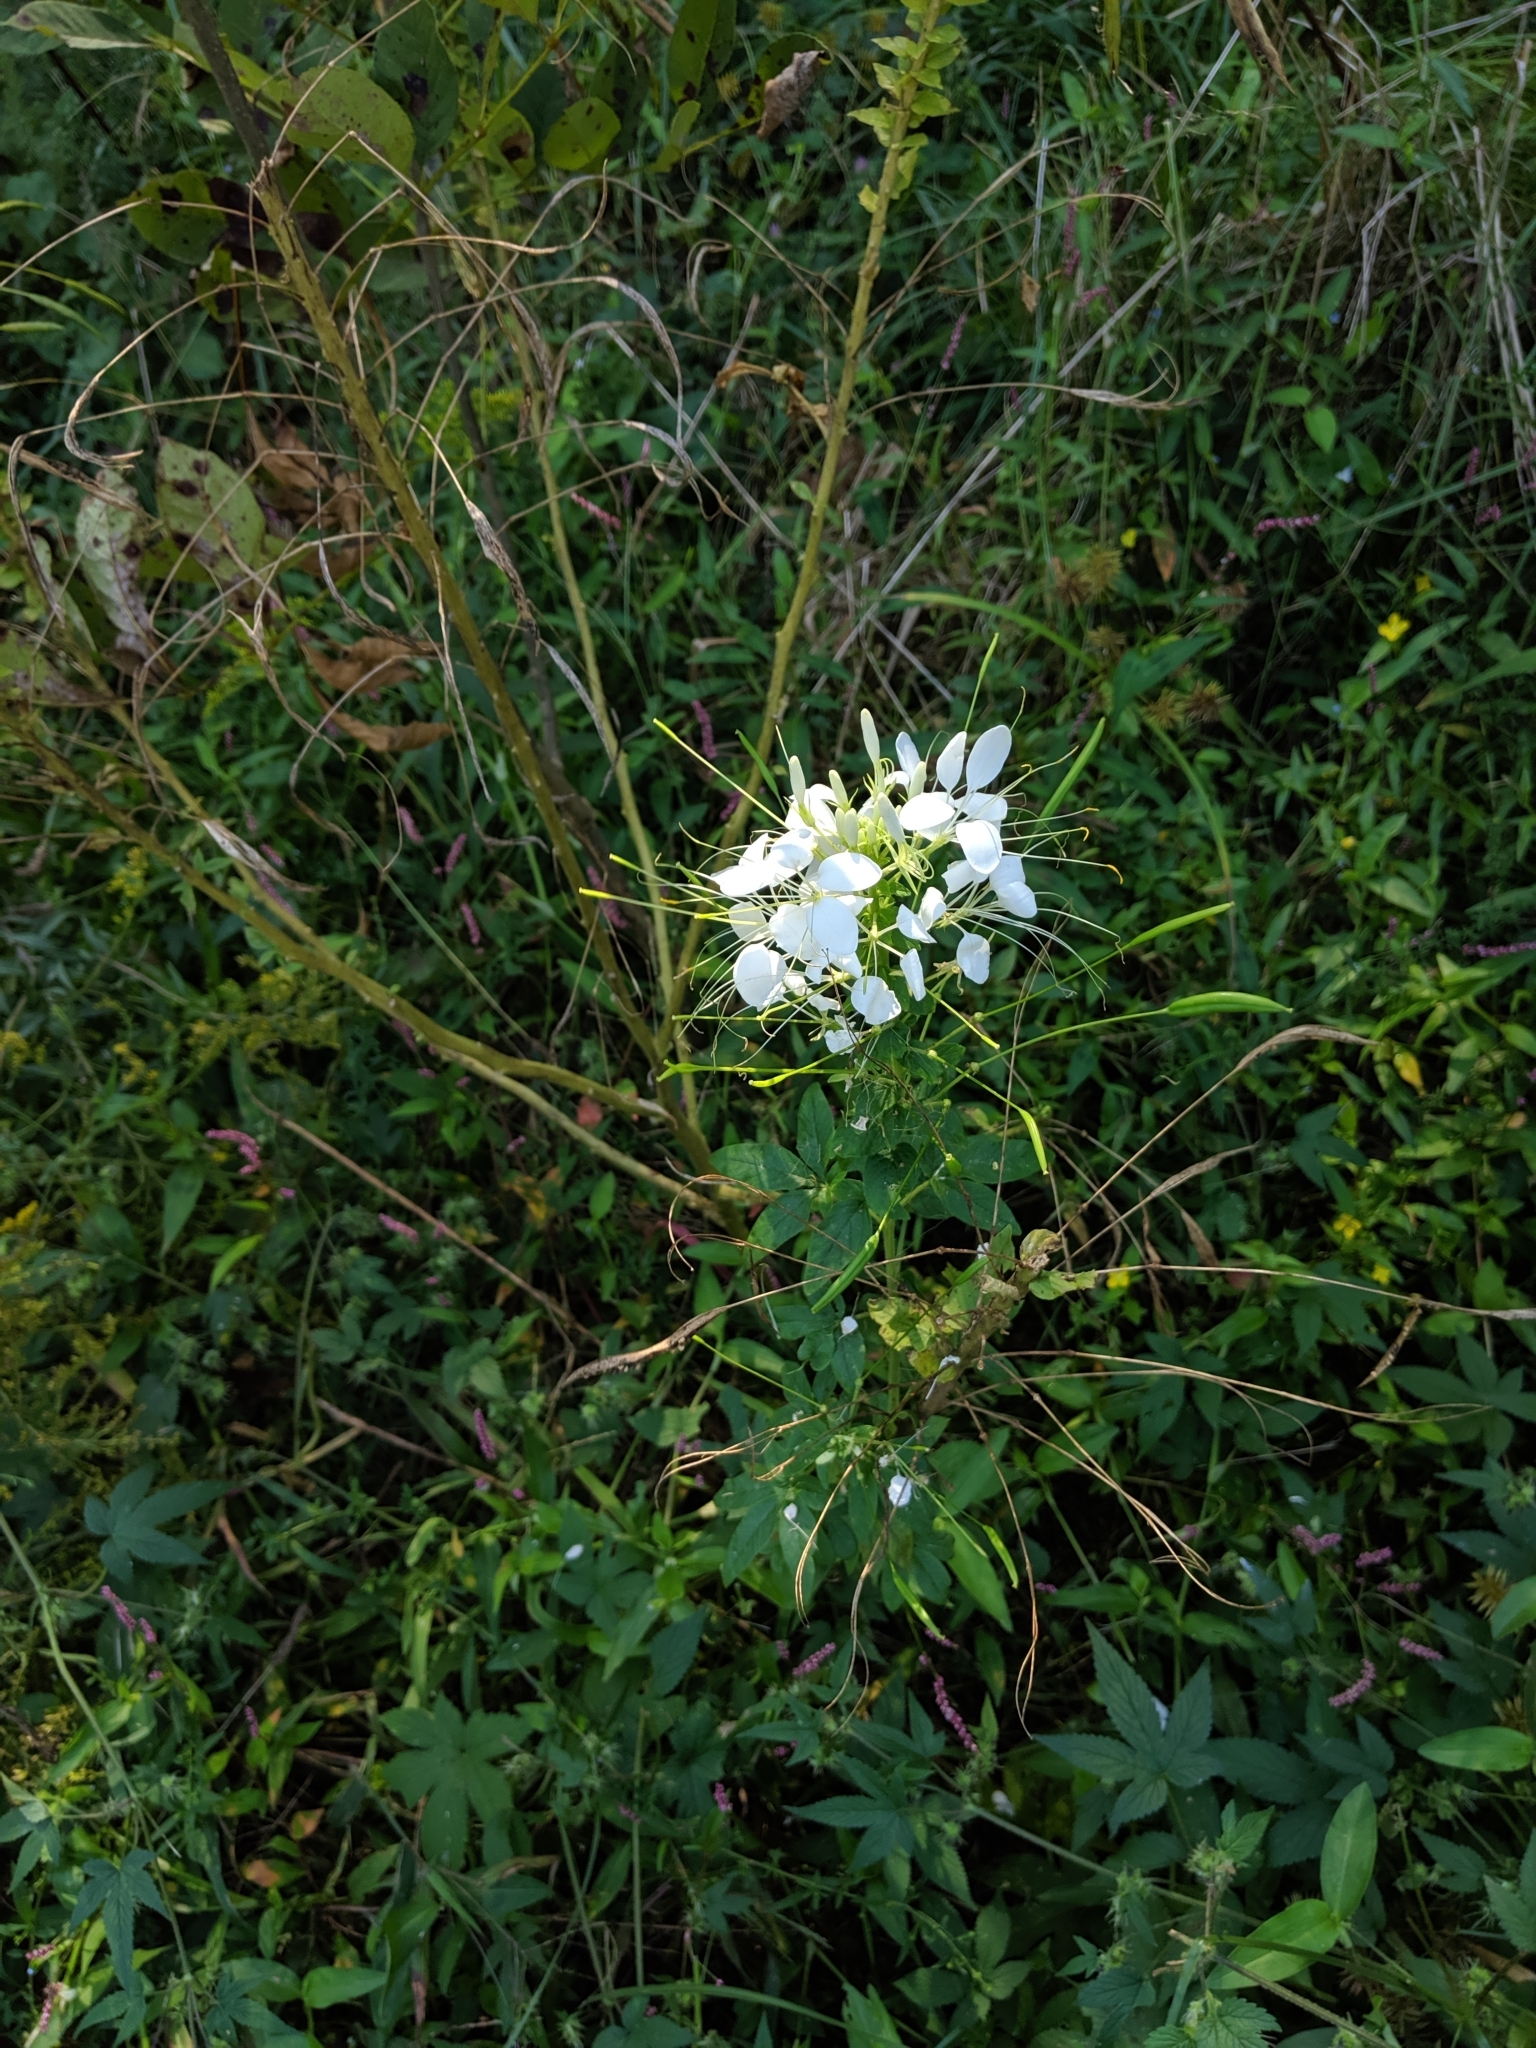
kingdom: Plantae
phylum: Tracheophyta
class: Magnoliopsida
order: Brassicales
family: Cleomaceae
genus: Tarenaya
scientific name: Tarenaya houtteana
